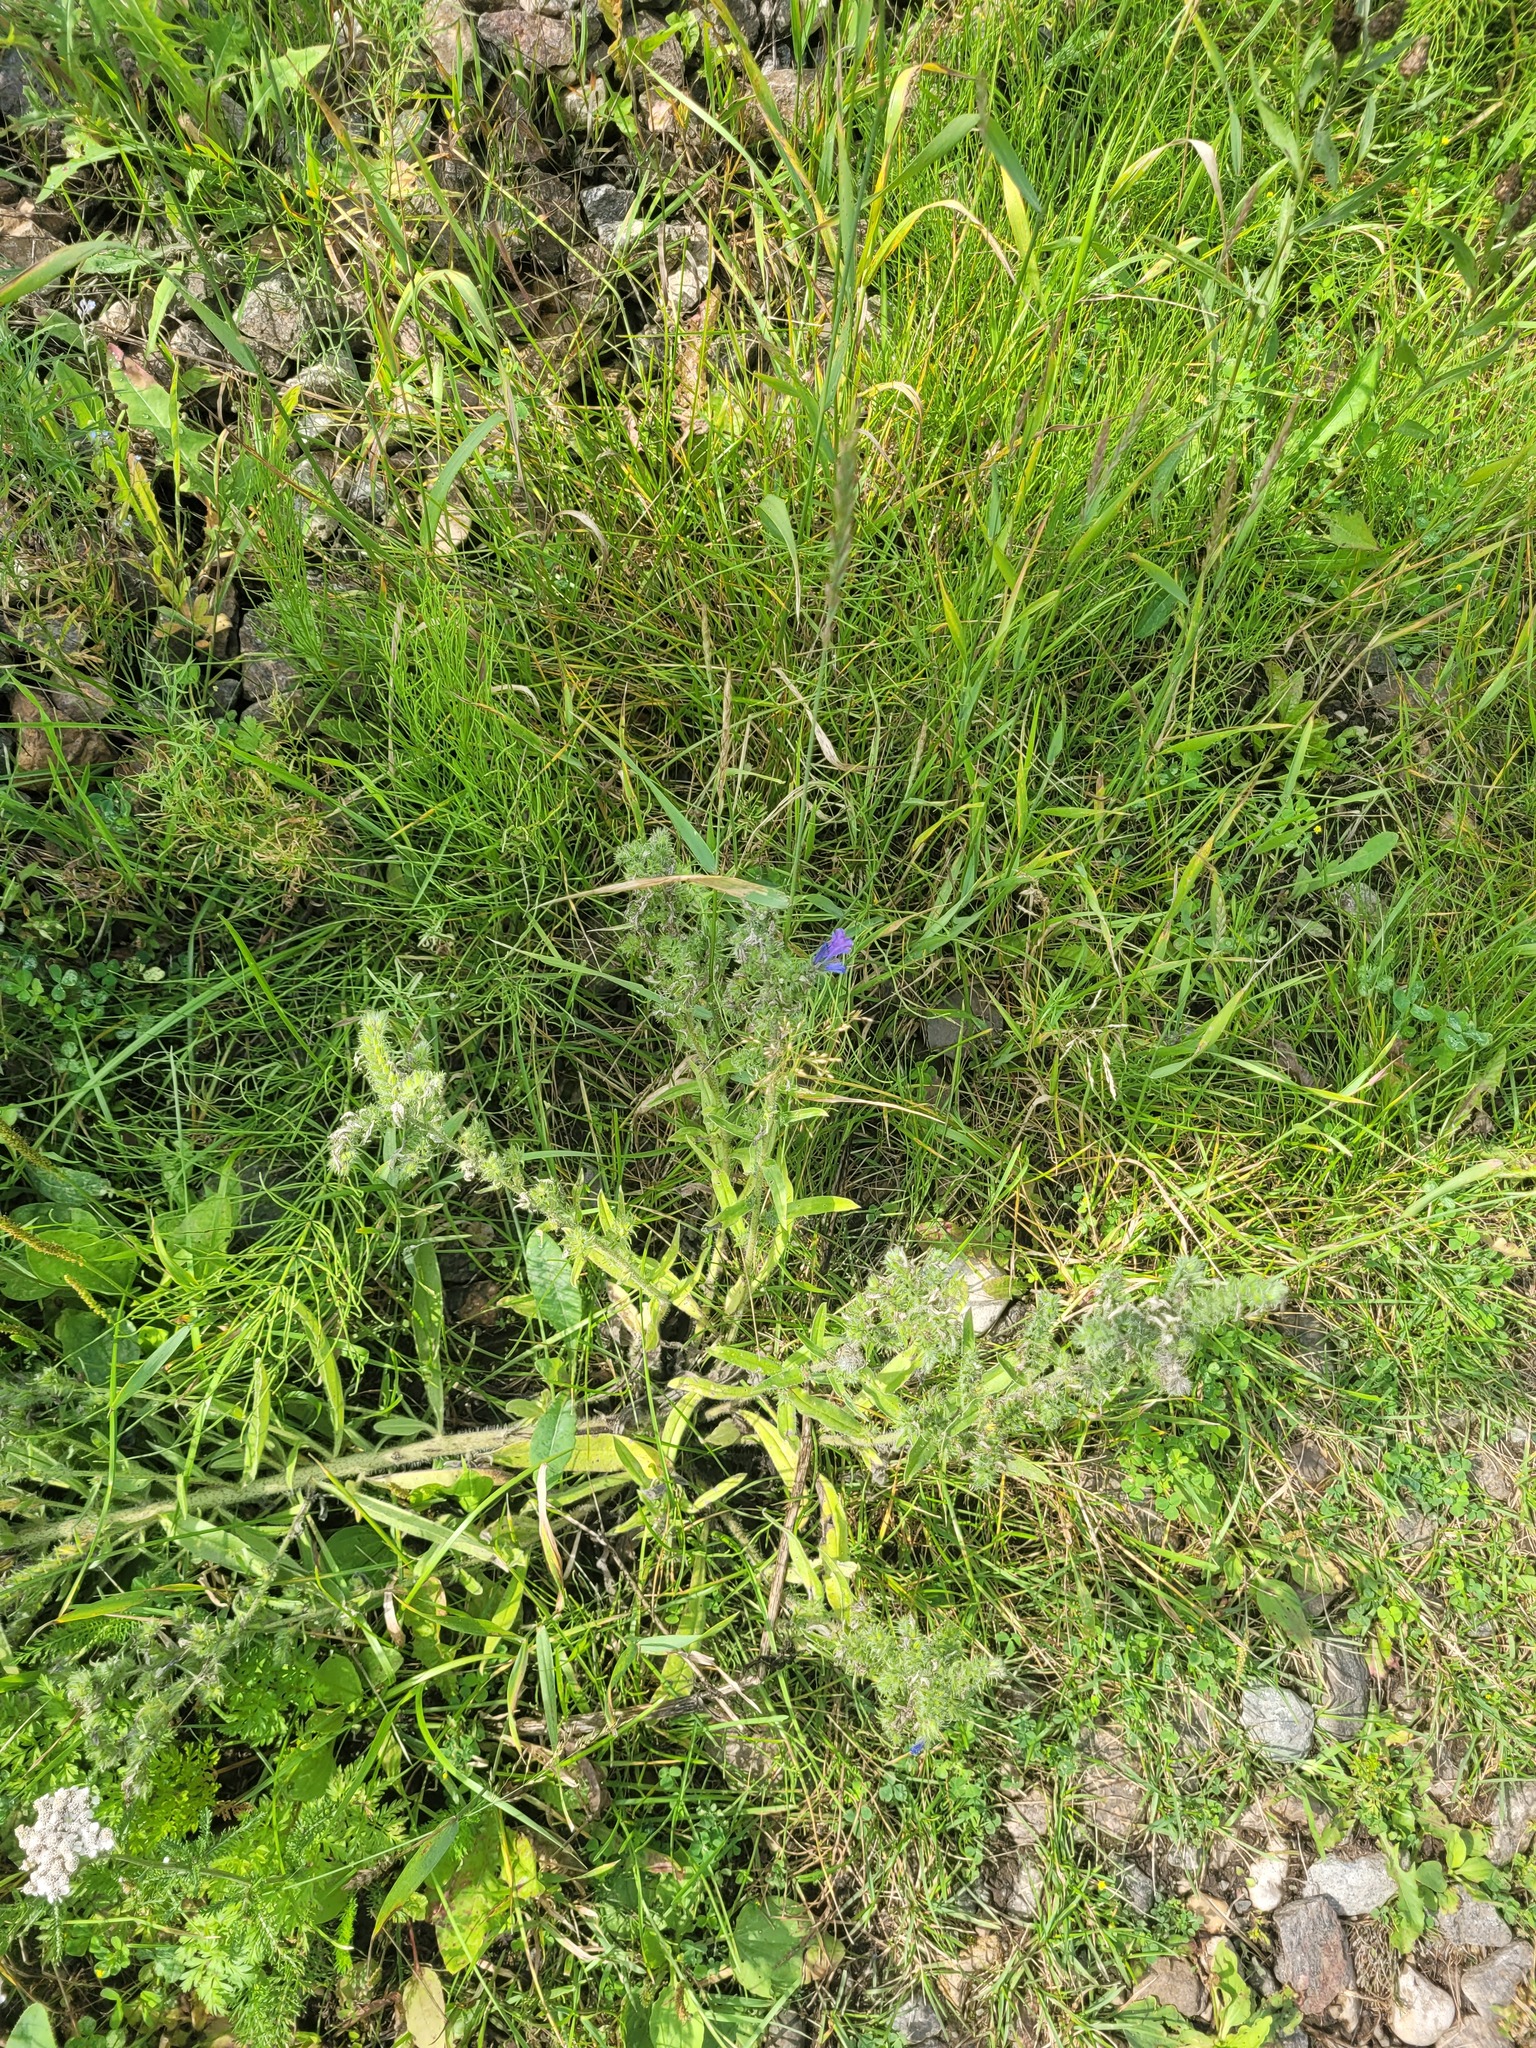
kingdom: Plantae
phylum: Tracheophyta
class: Magnoliopsida
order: Boraginales
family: Boraginaceae
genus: Echium
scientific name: Echium vulgare
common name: Common viper's bugloss
